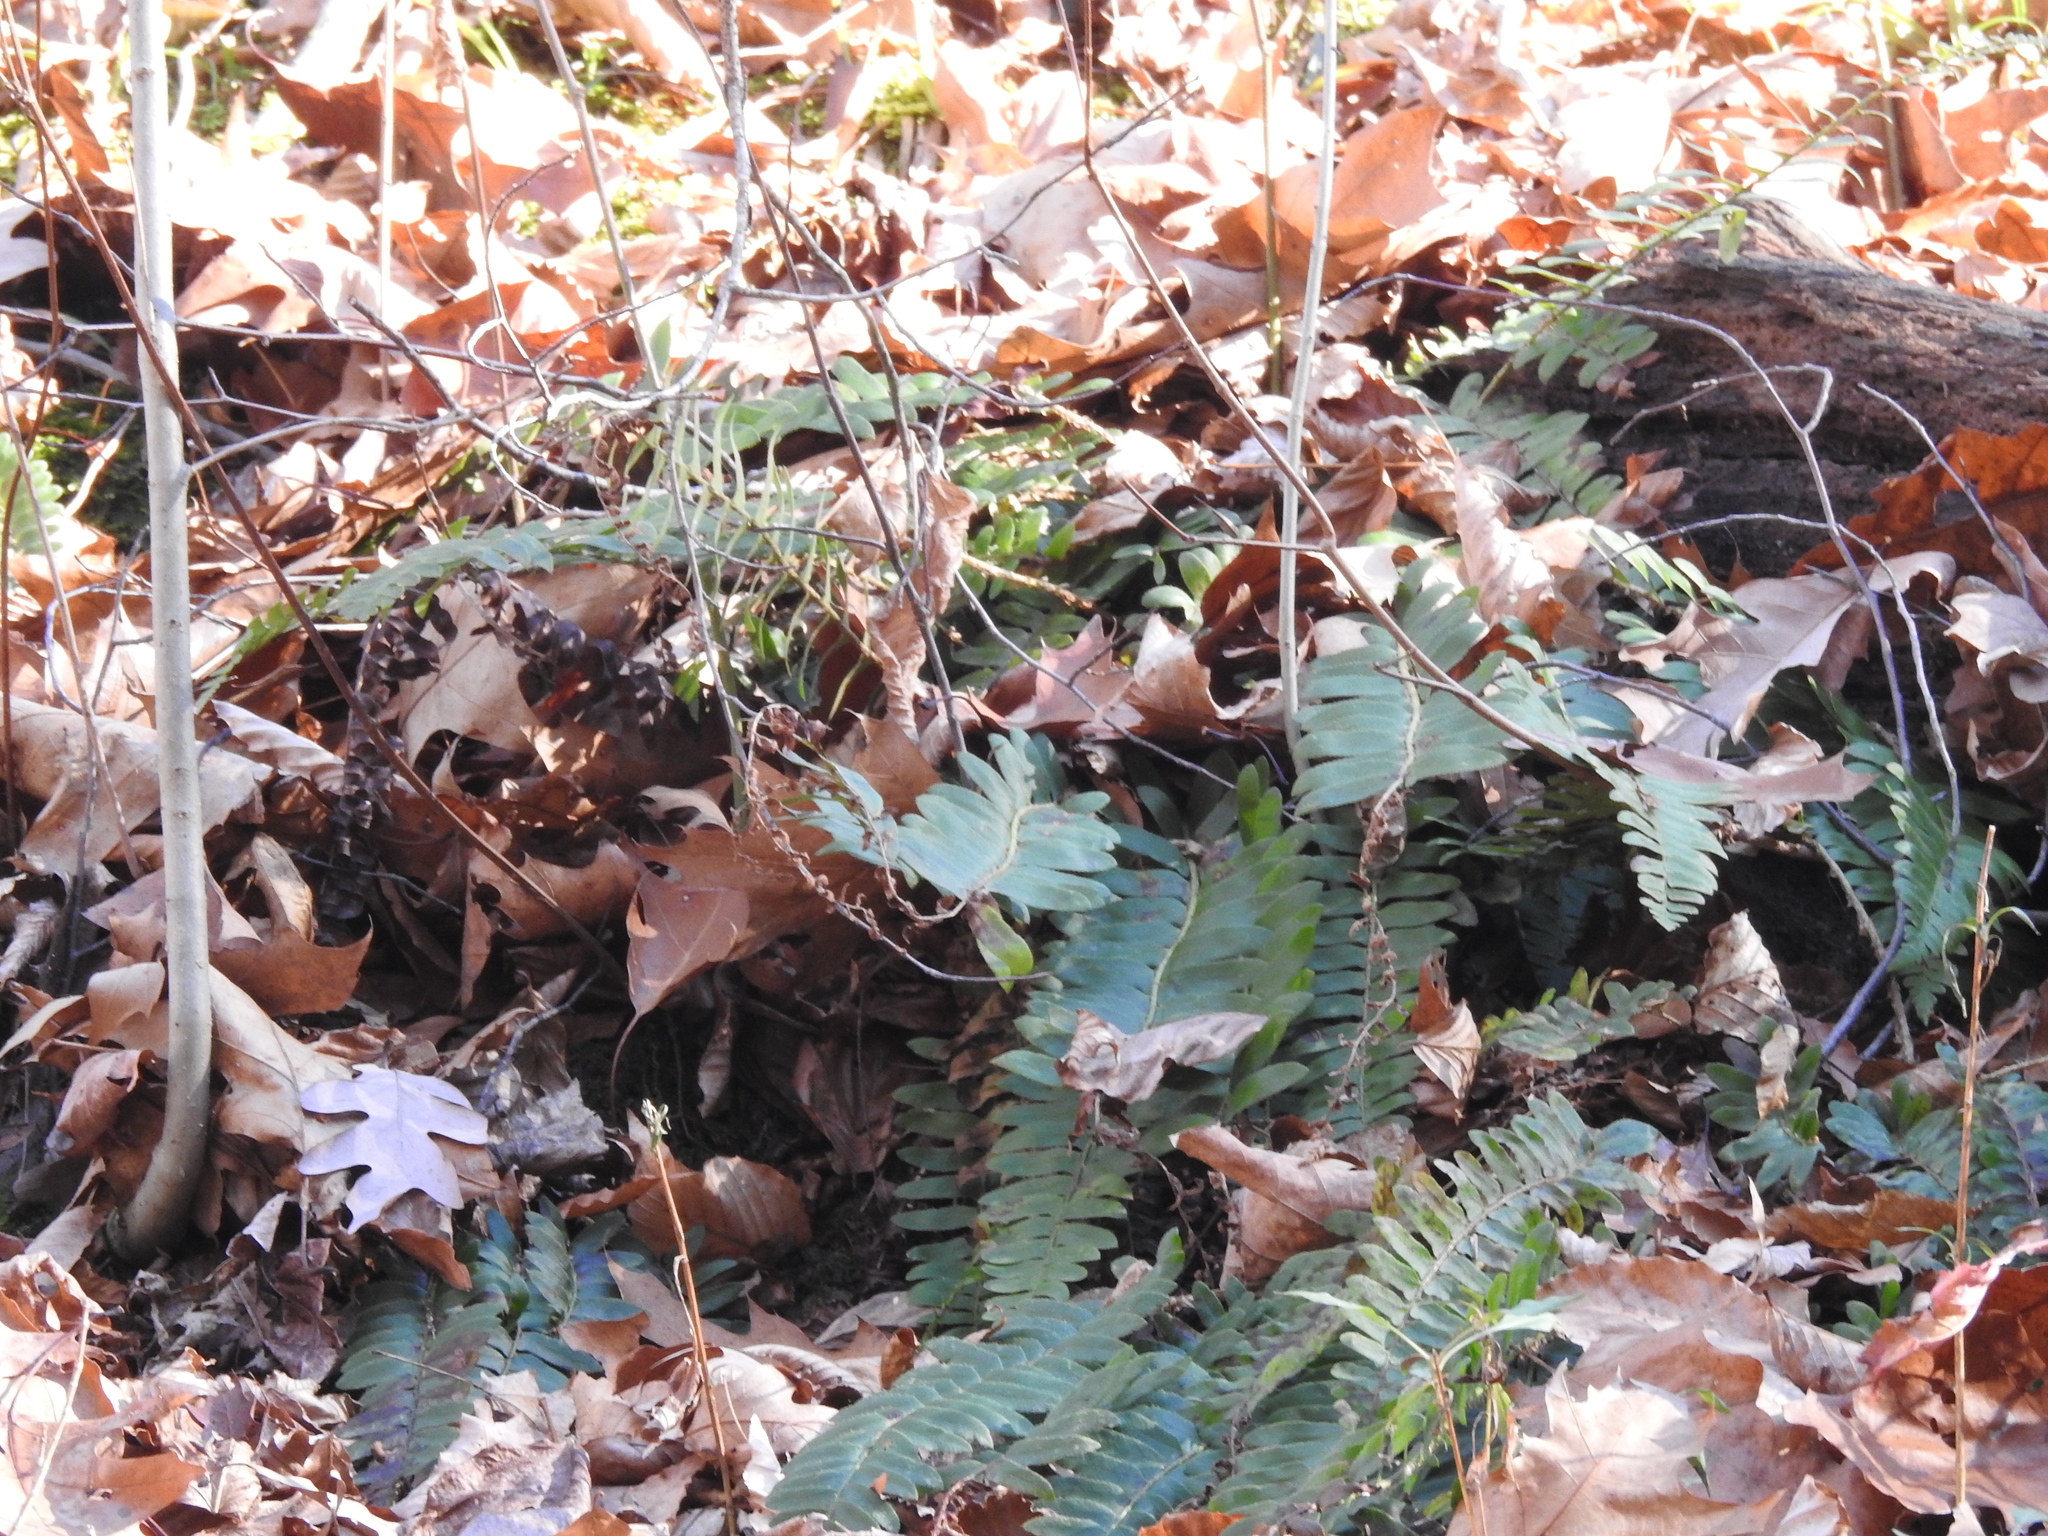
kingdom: Plantae
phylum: Tracheophyta
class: Polypodiopsida
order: Polypodiales
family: Dryopteridaceae
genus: Polystichum
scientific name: Polystichum acrostichoides
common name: Christmas fern
